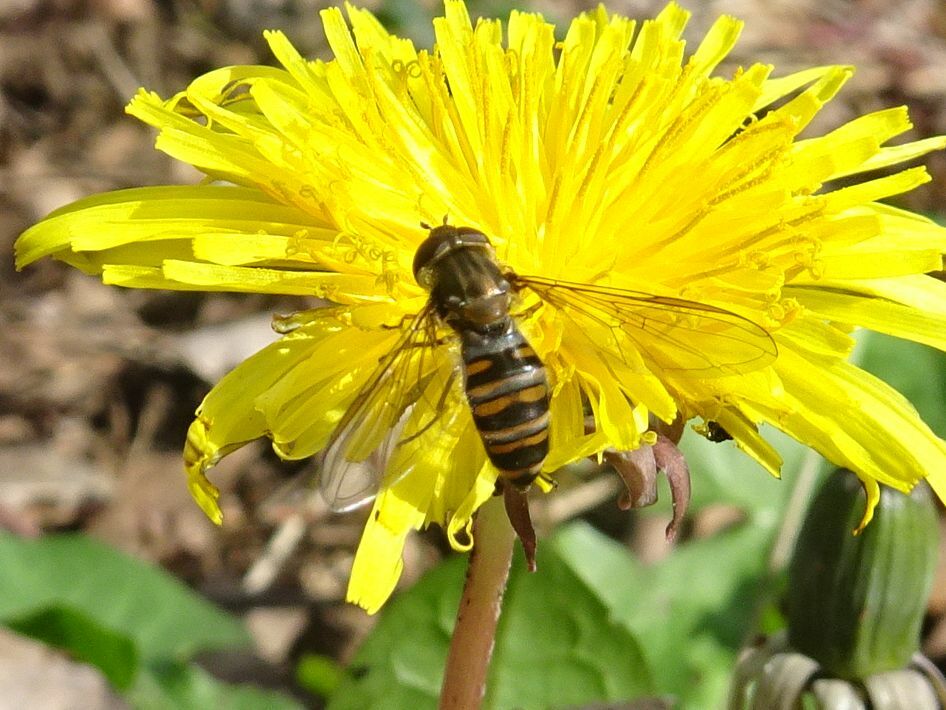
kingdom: Animalia
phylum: Arthropoda
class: Insecta
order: Diptera
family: Syrphidae
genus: Episyrphus
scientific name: Episyrphus balteatus
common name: Marmalade hoverfly
